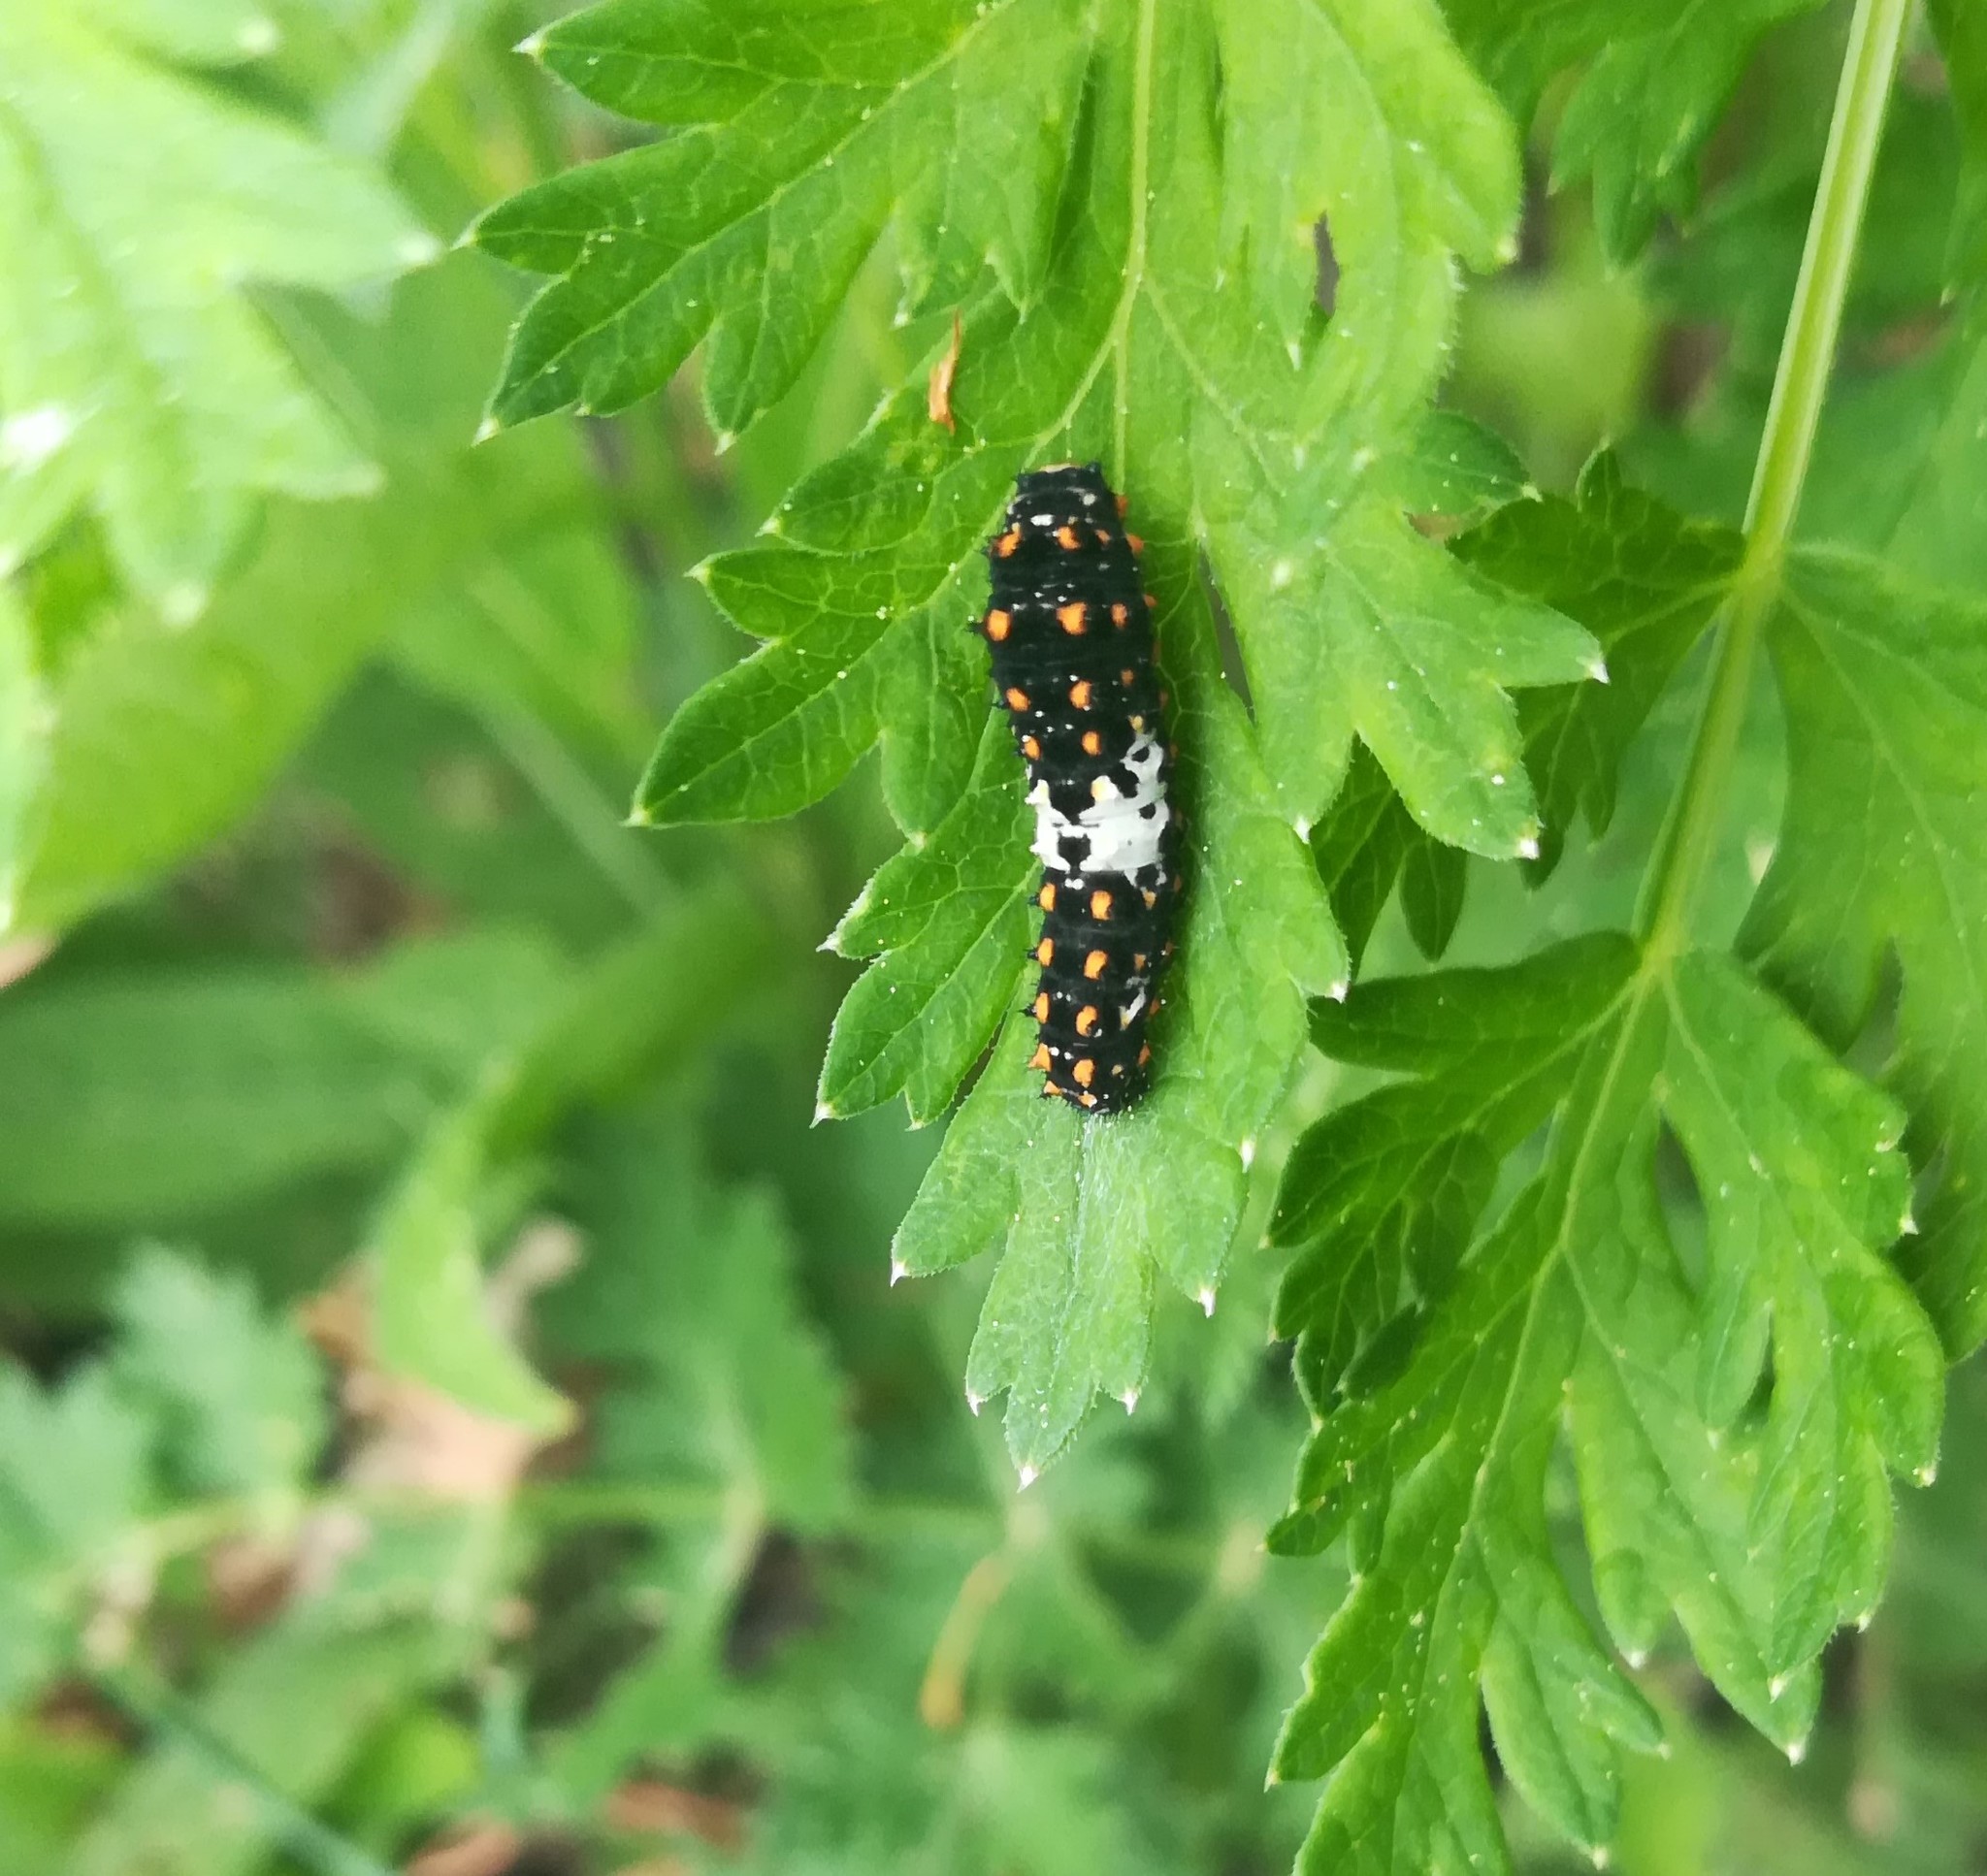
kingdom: Animalia
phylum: Arthropoda
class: Insecta
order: Lepidoptera
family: Papilionidae
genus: Papilio
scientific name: Papilio machaon
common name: Swallowtail
